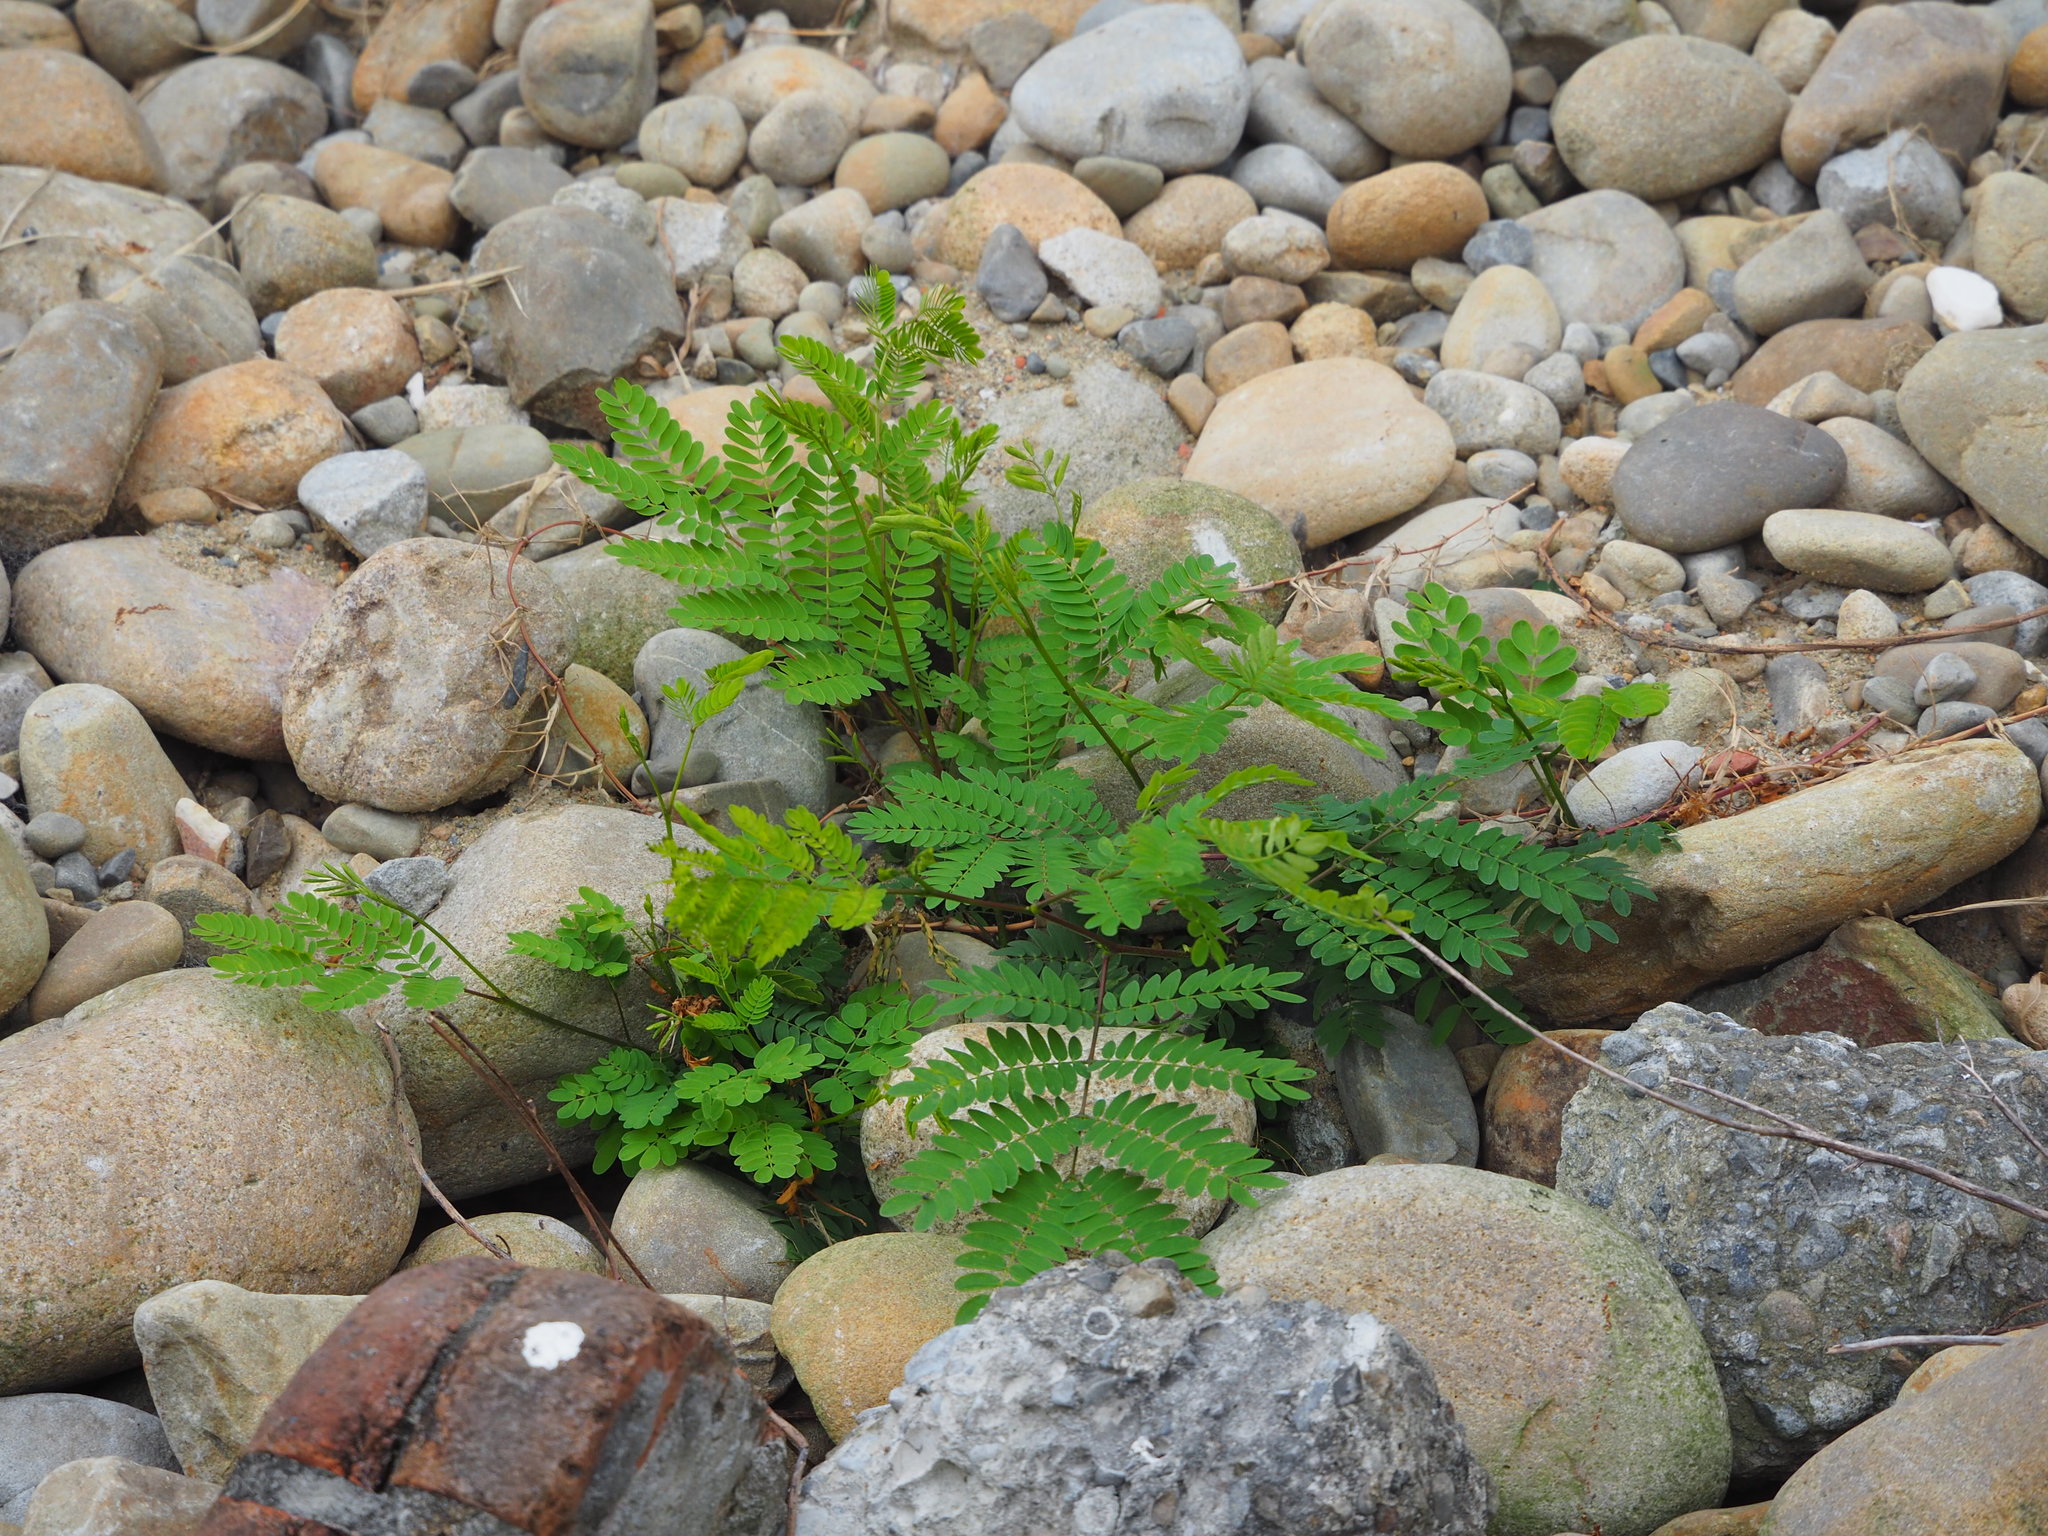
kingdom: Plantae
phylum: Tracheophyta
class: Magnoliopsida
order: Fabales
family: Fabaceae
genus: Leucaena
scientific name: Leucaena leucocephala
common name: White leadtree
